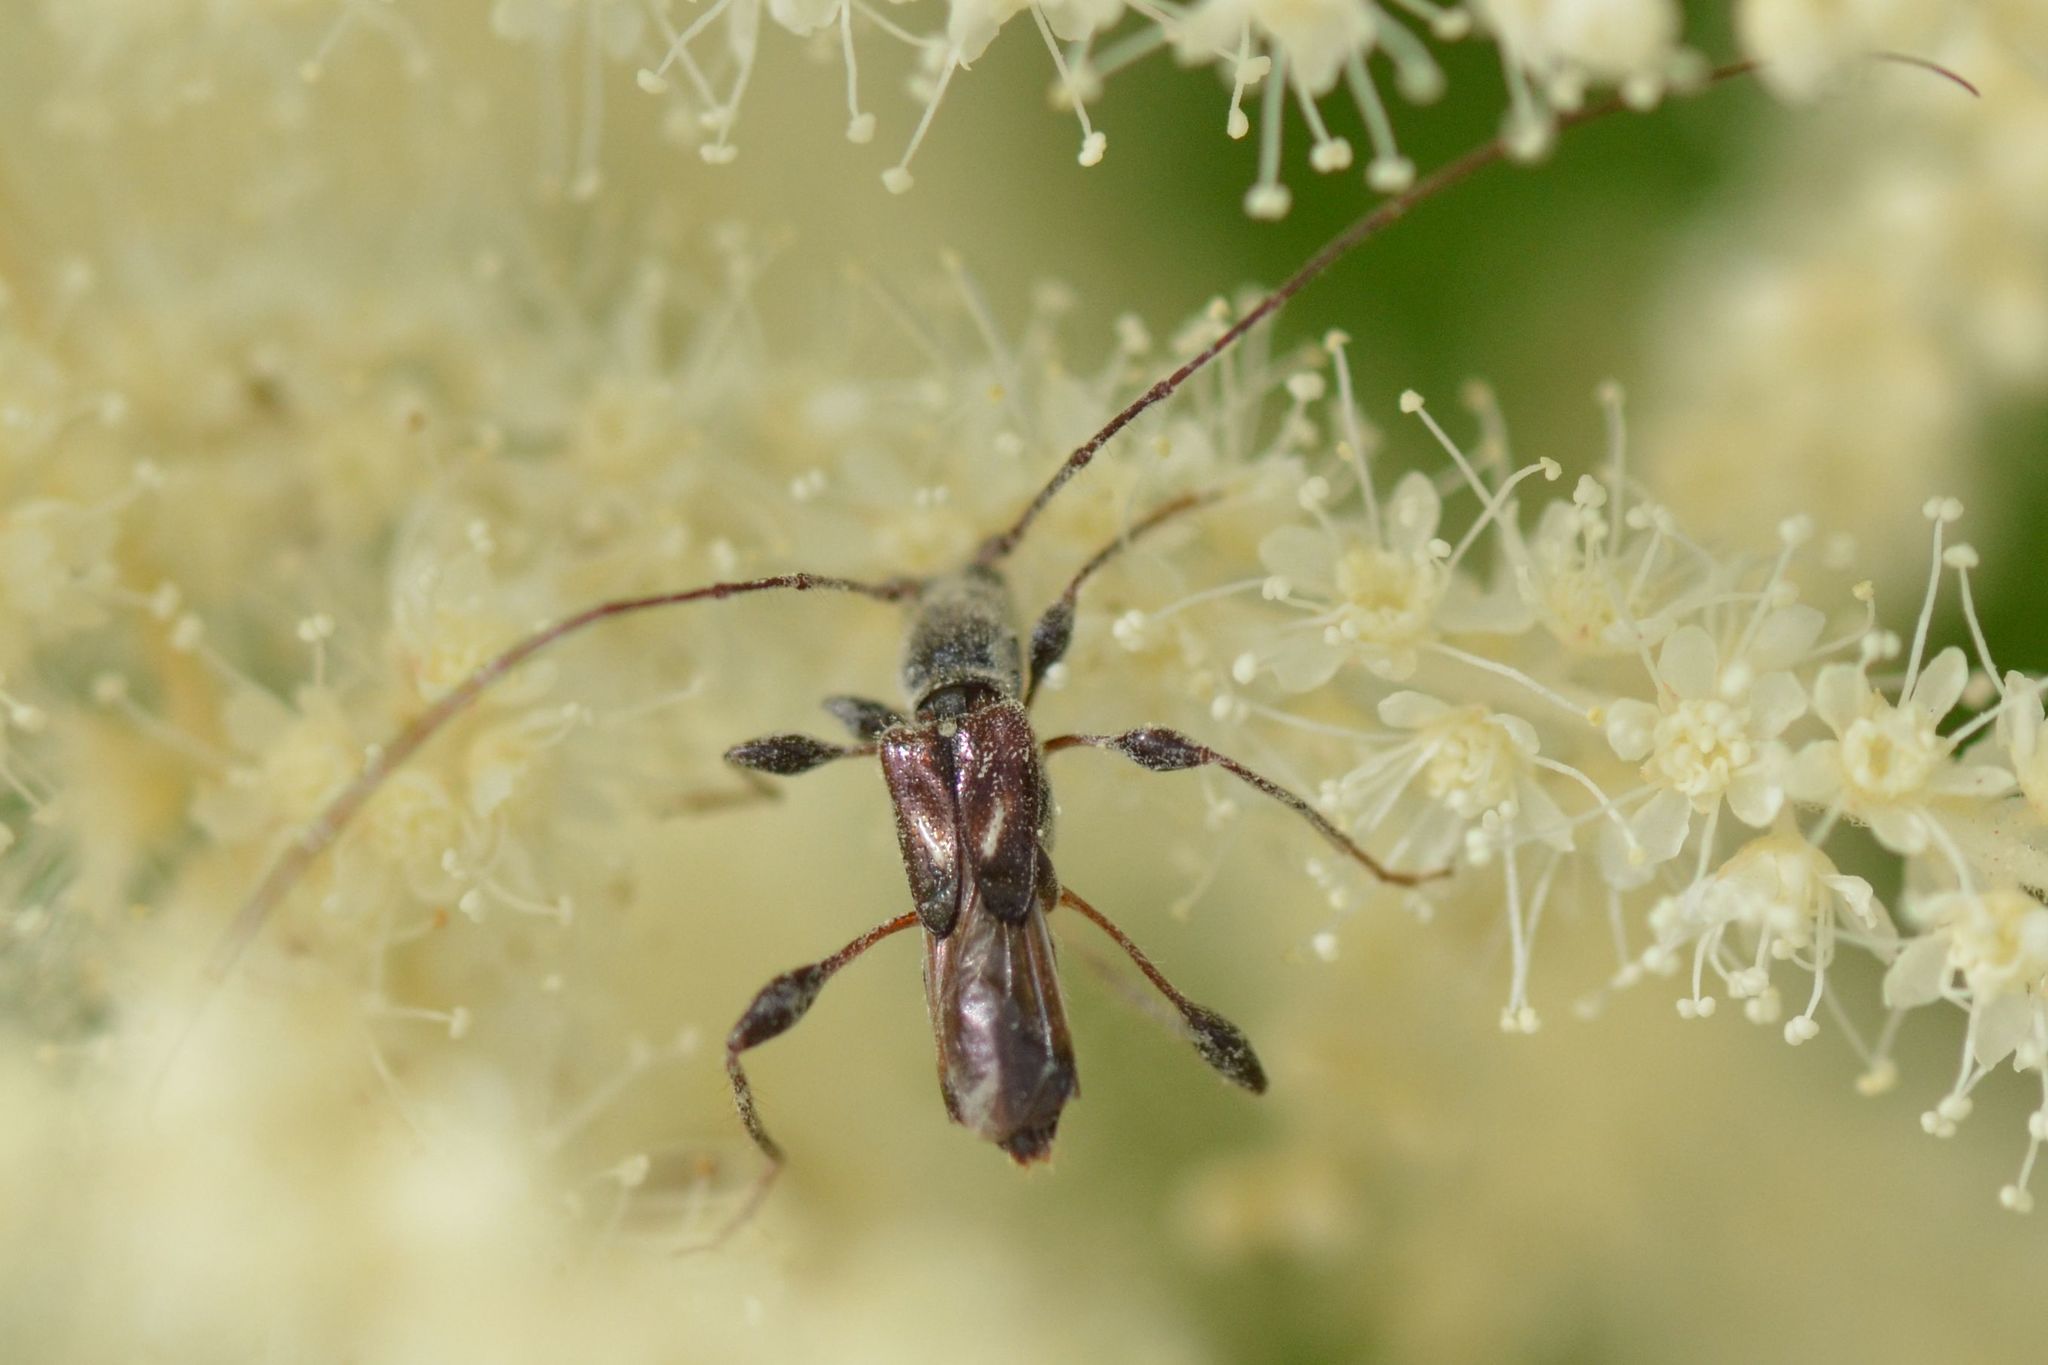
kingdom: Animalia
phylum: Arthropoda
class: Insecta
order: Coleoptera
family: Cerambycidae
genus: Molorchus
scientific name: Molorchus minor
